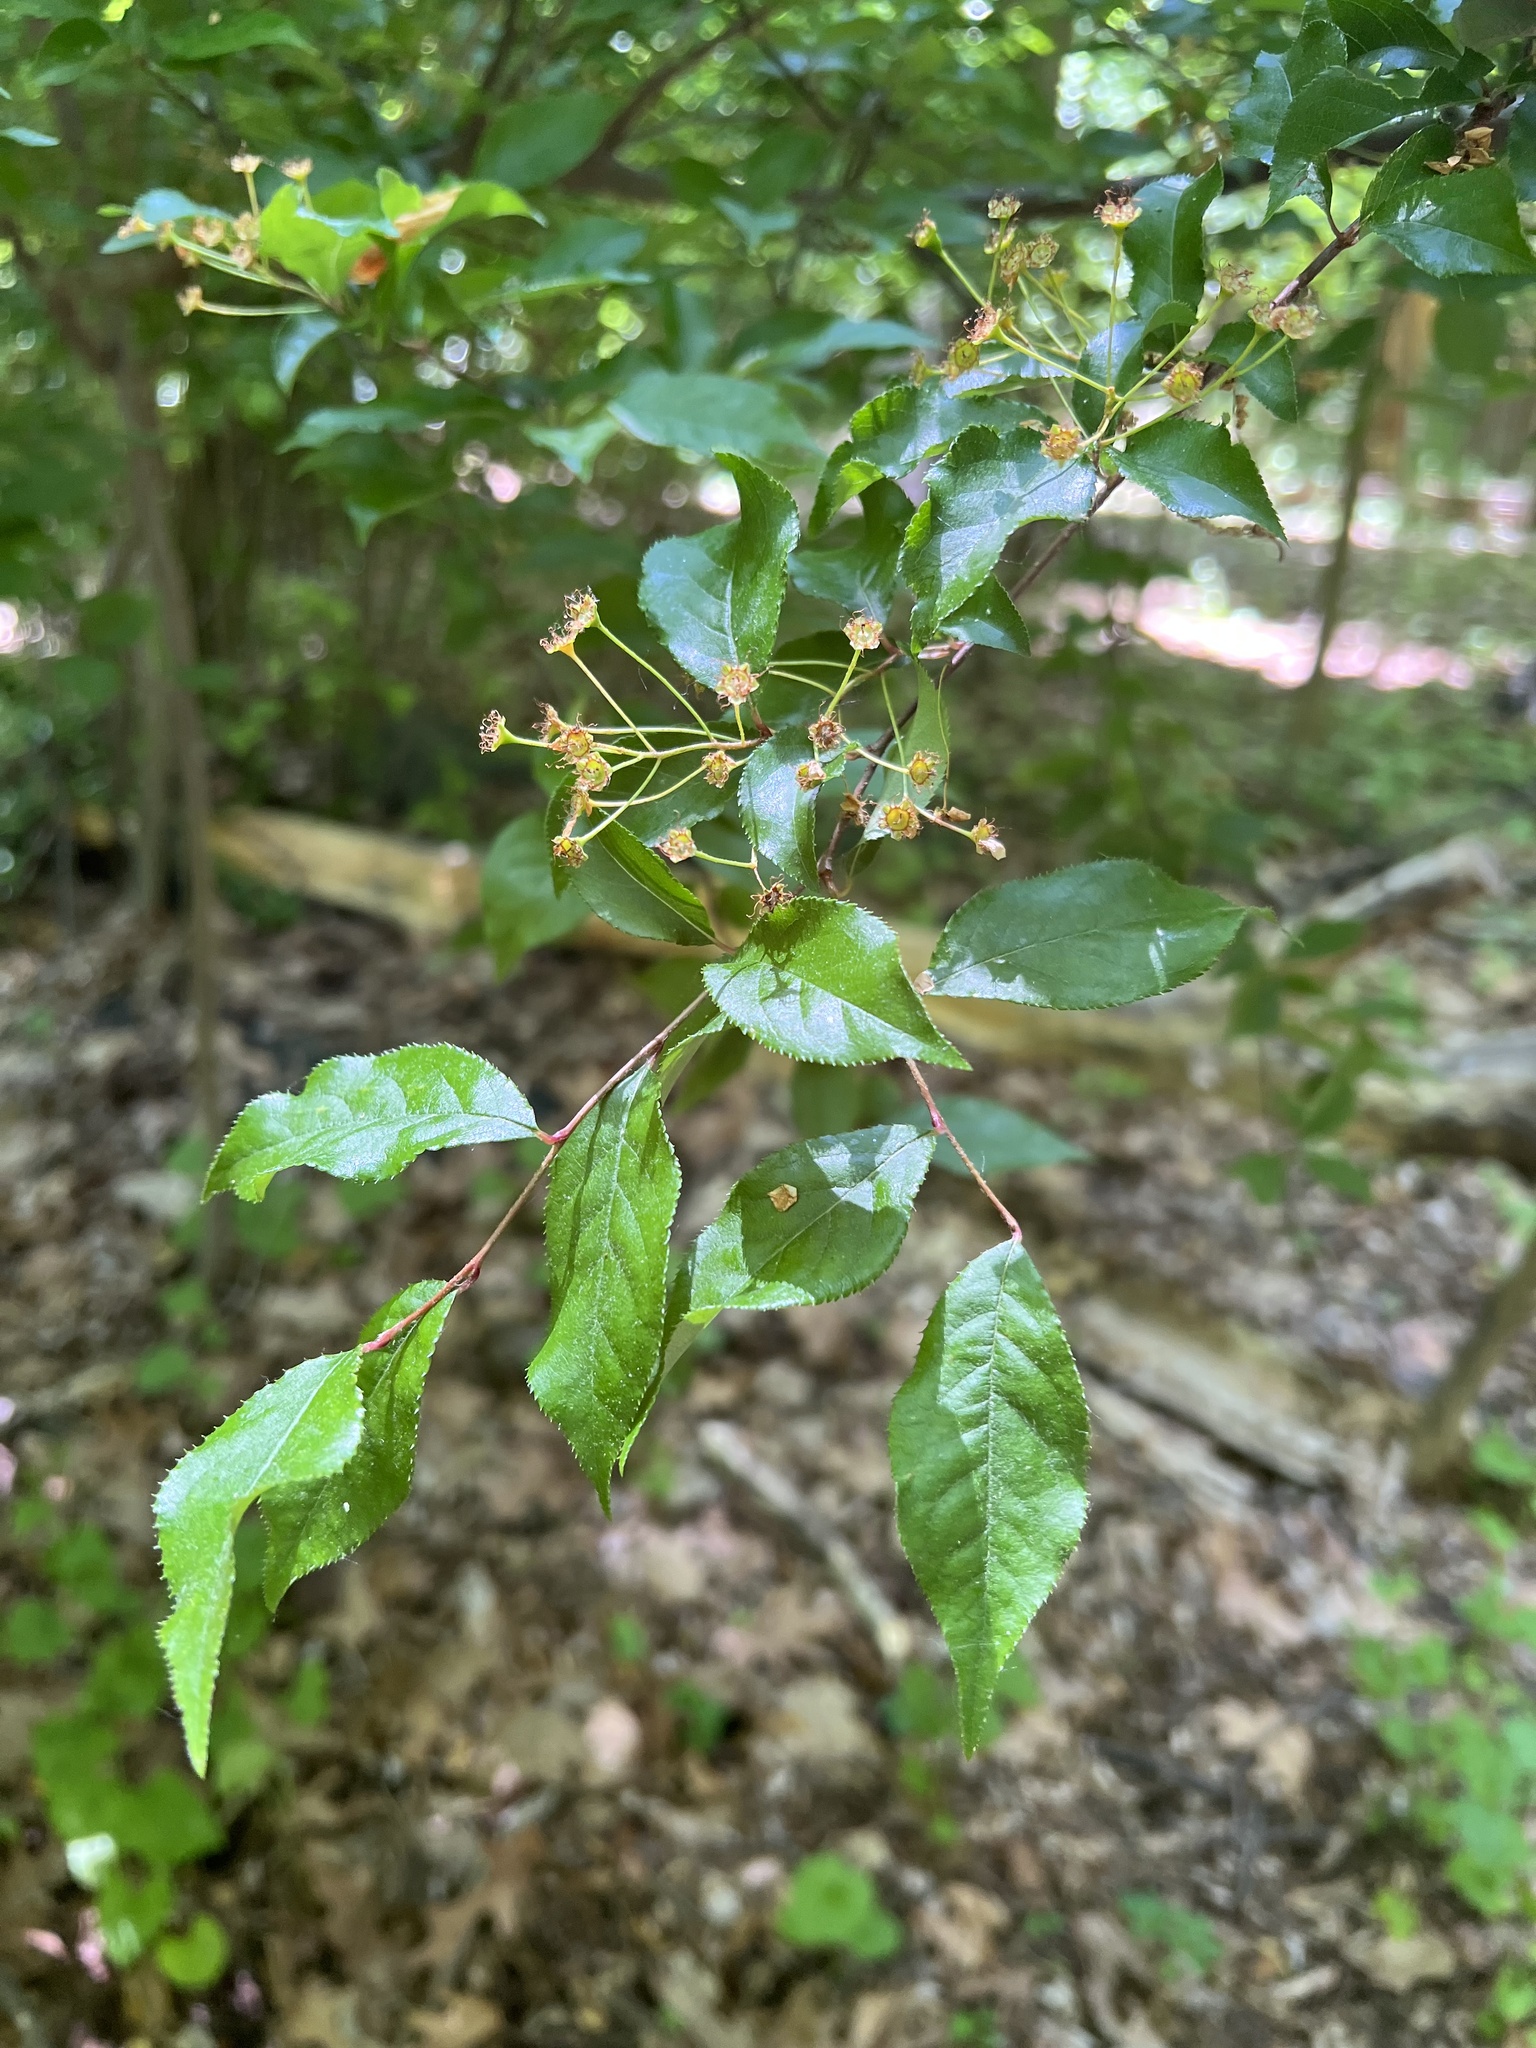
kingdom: Plantae
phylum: Tracheophyta
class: Magnoliopsida
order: Rosales
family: Rosaceae
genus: Pourthiaea
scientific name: Pourthiaea villosa
